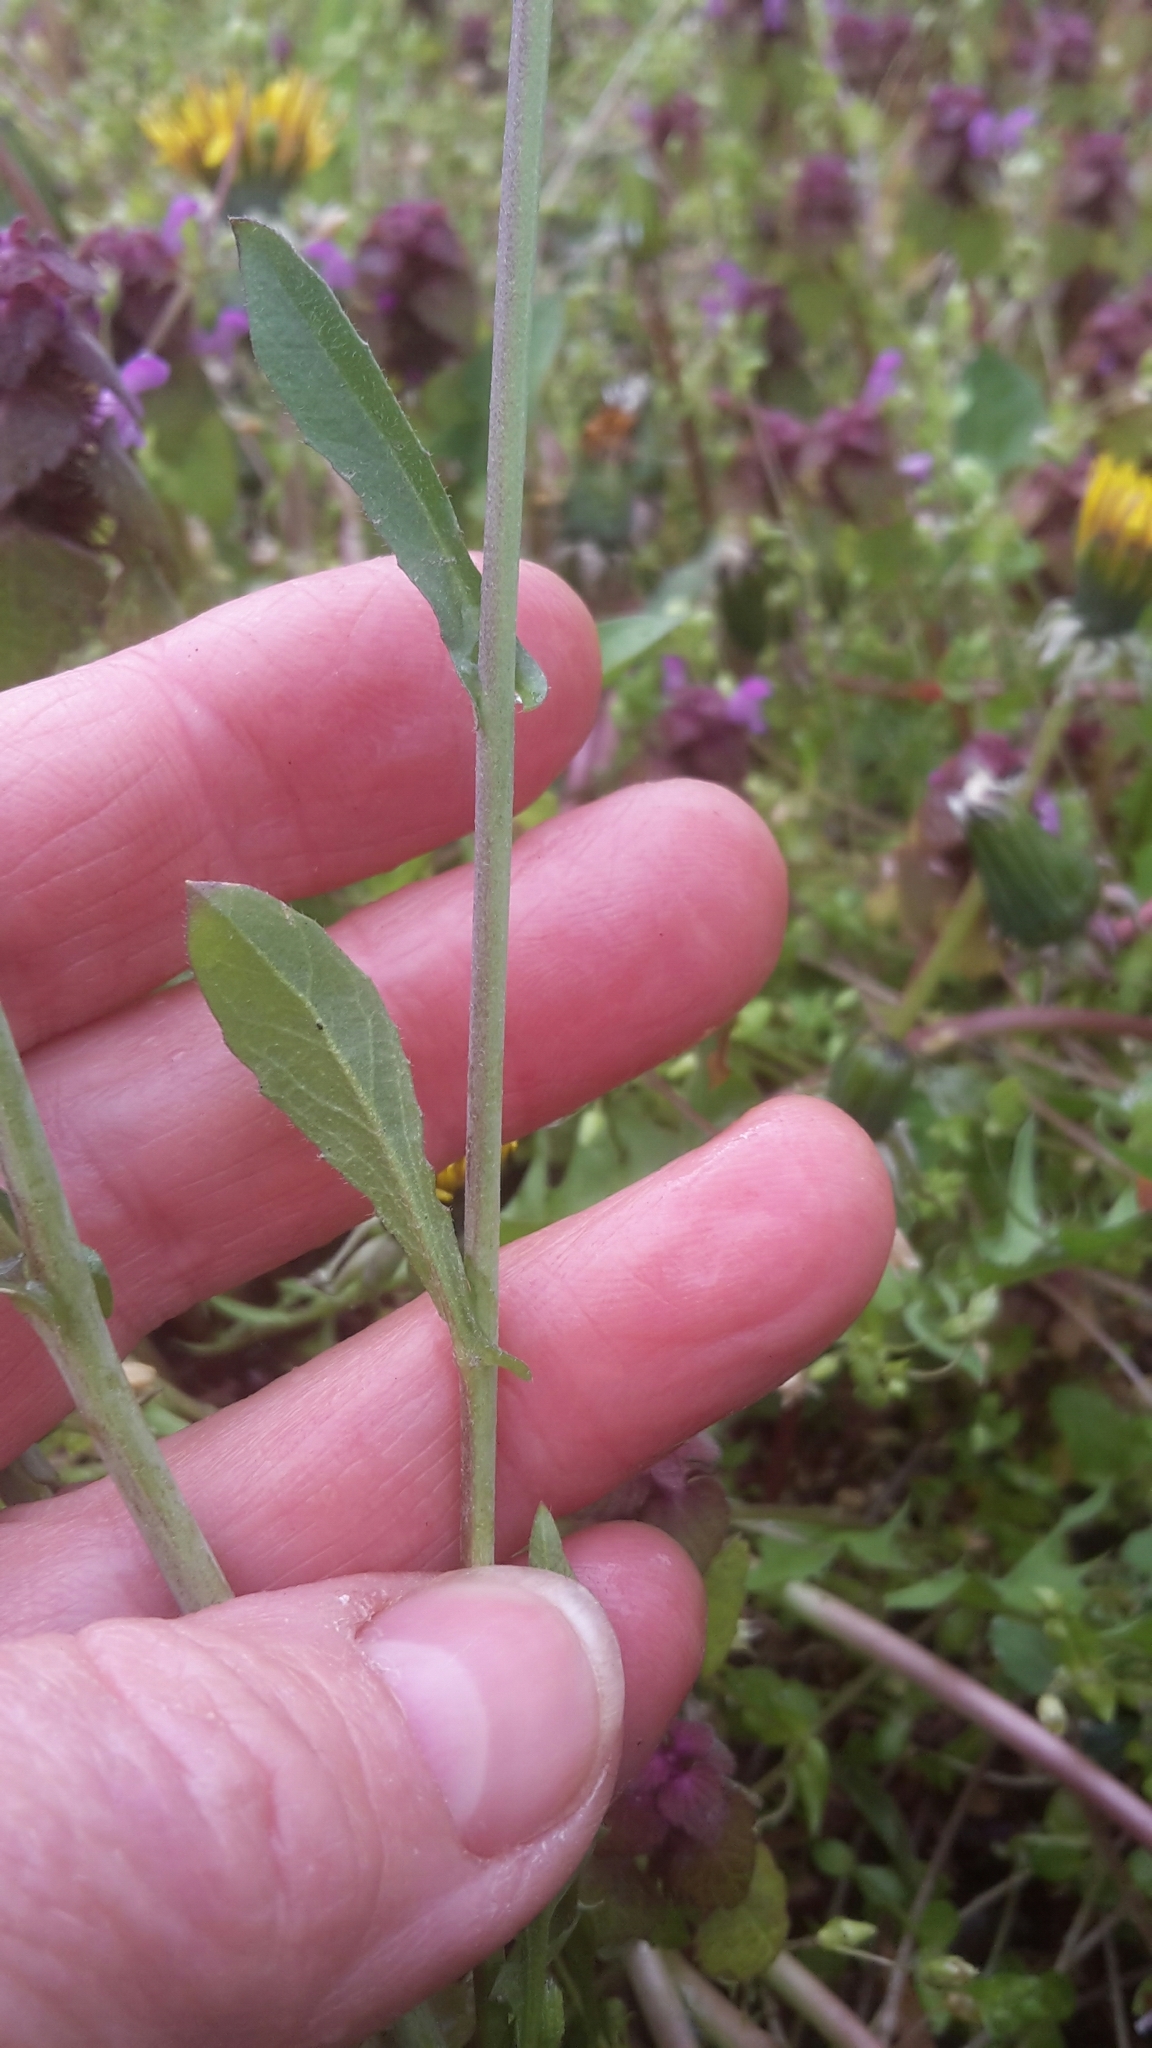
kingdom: Plantae
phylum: Tracheophyta
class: Magnoliopsida
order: Brassicales
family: Brassicaceae
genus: Capsella
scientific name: Capsella bursa-pastoris
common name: Shepherd's purse
